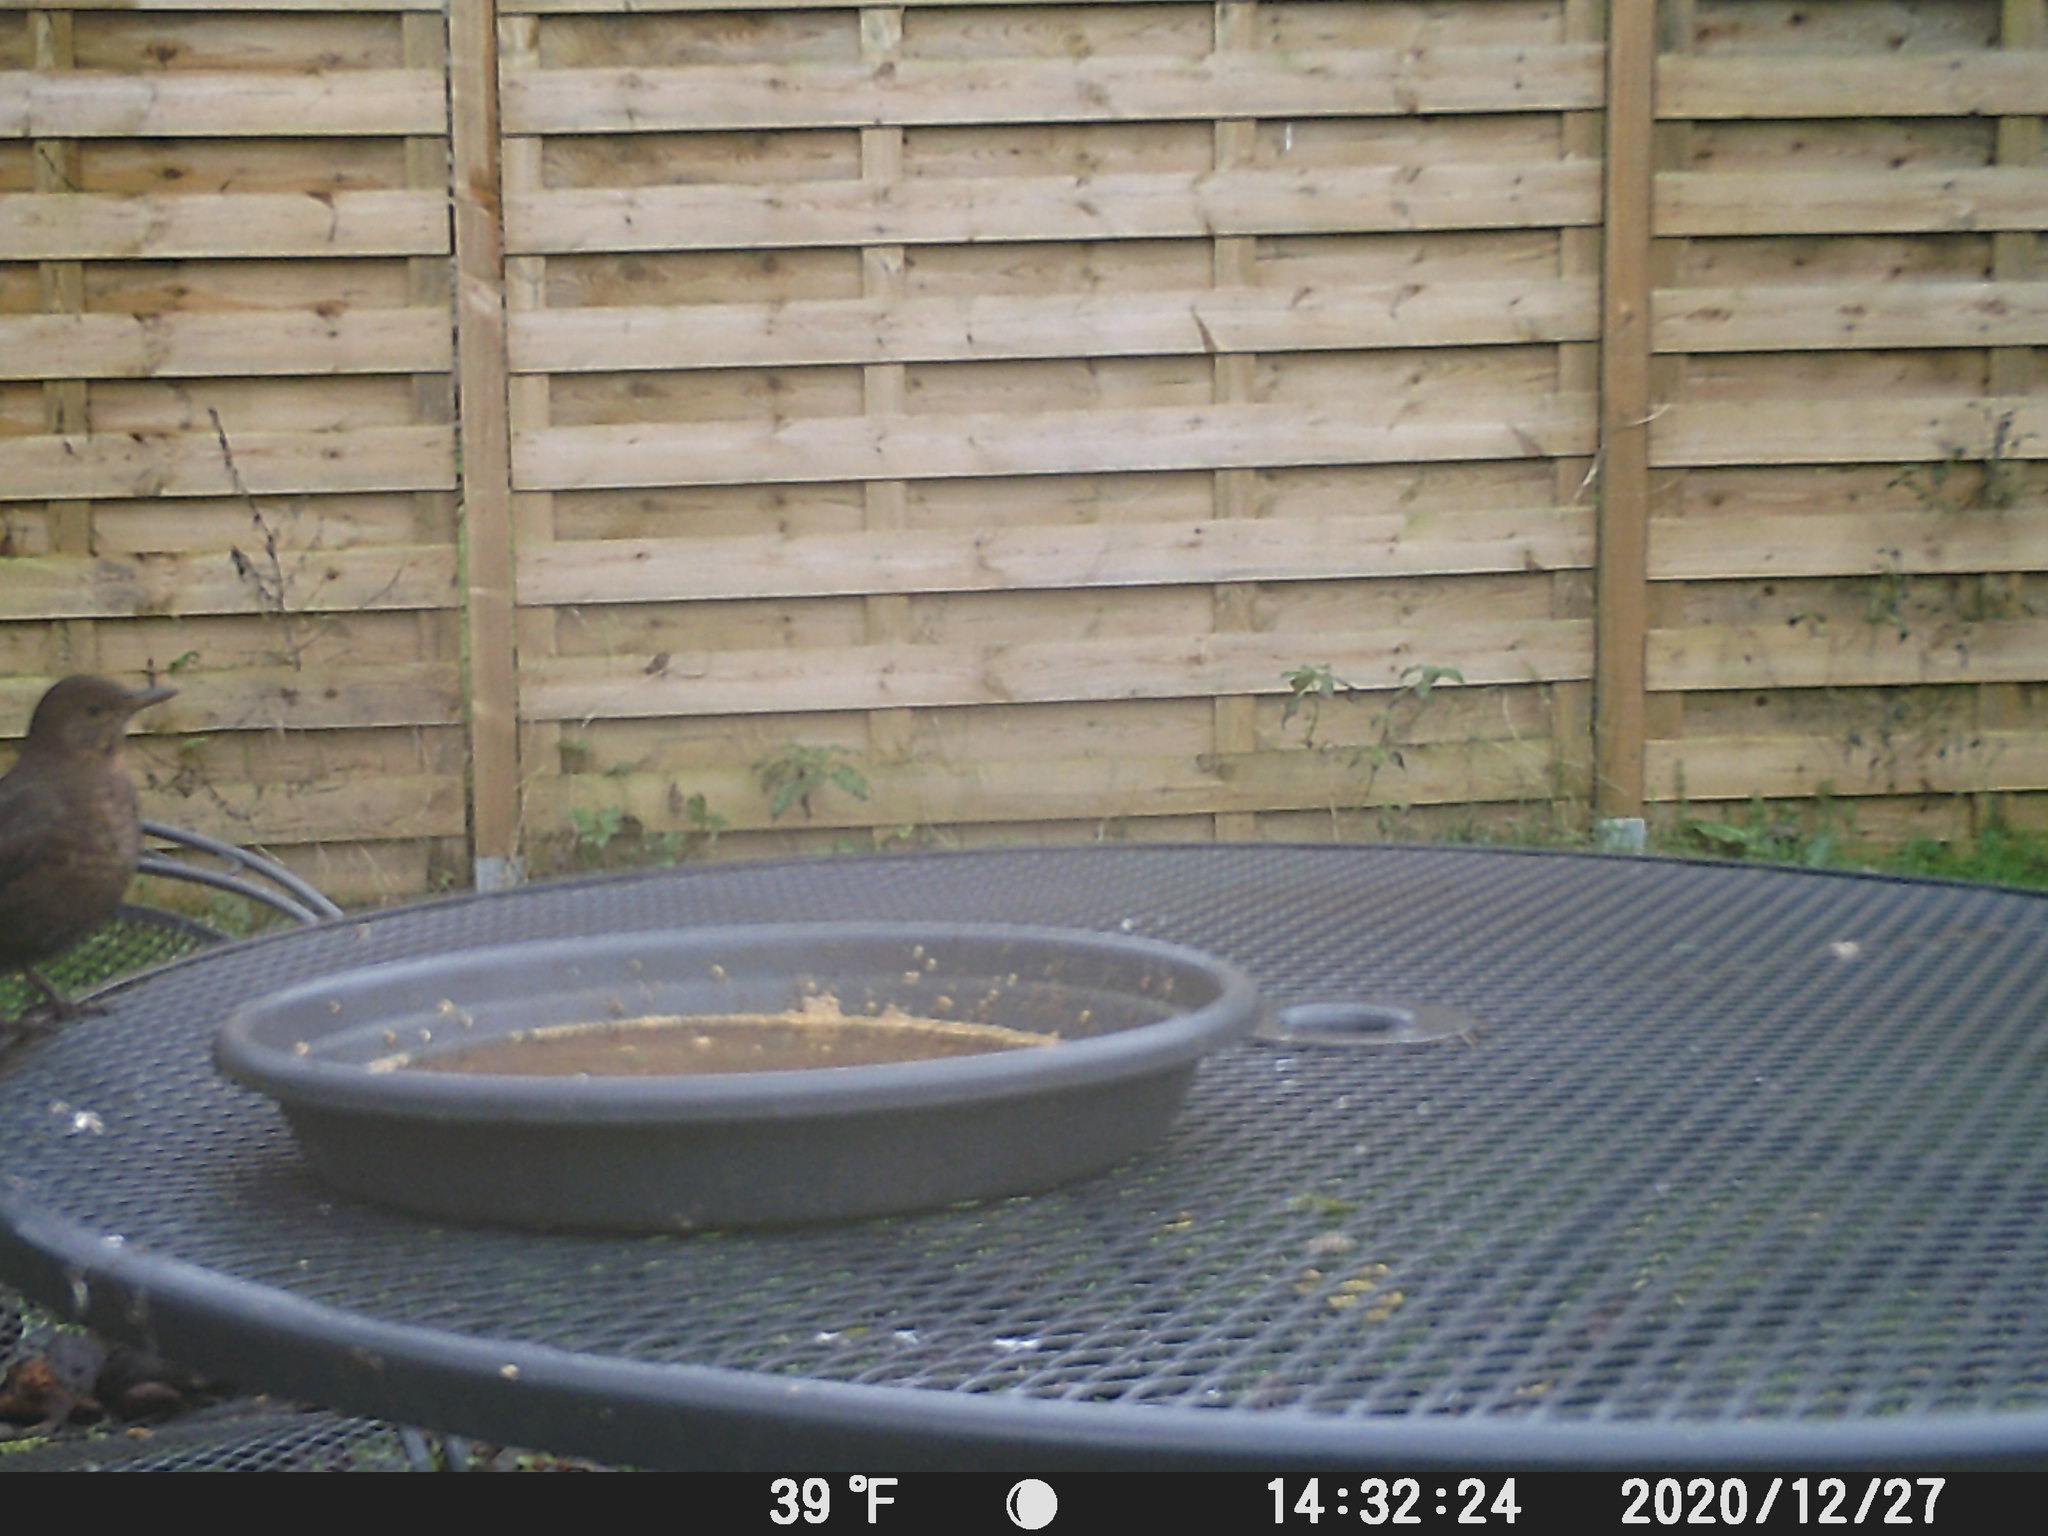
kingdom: Animalia
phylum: Chordata
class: Aves
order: Passeriformes
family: Turdidae
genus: Turdus
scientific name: Turdus merula
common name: Common blackbird
